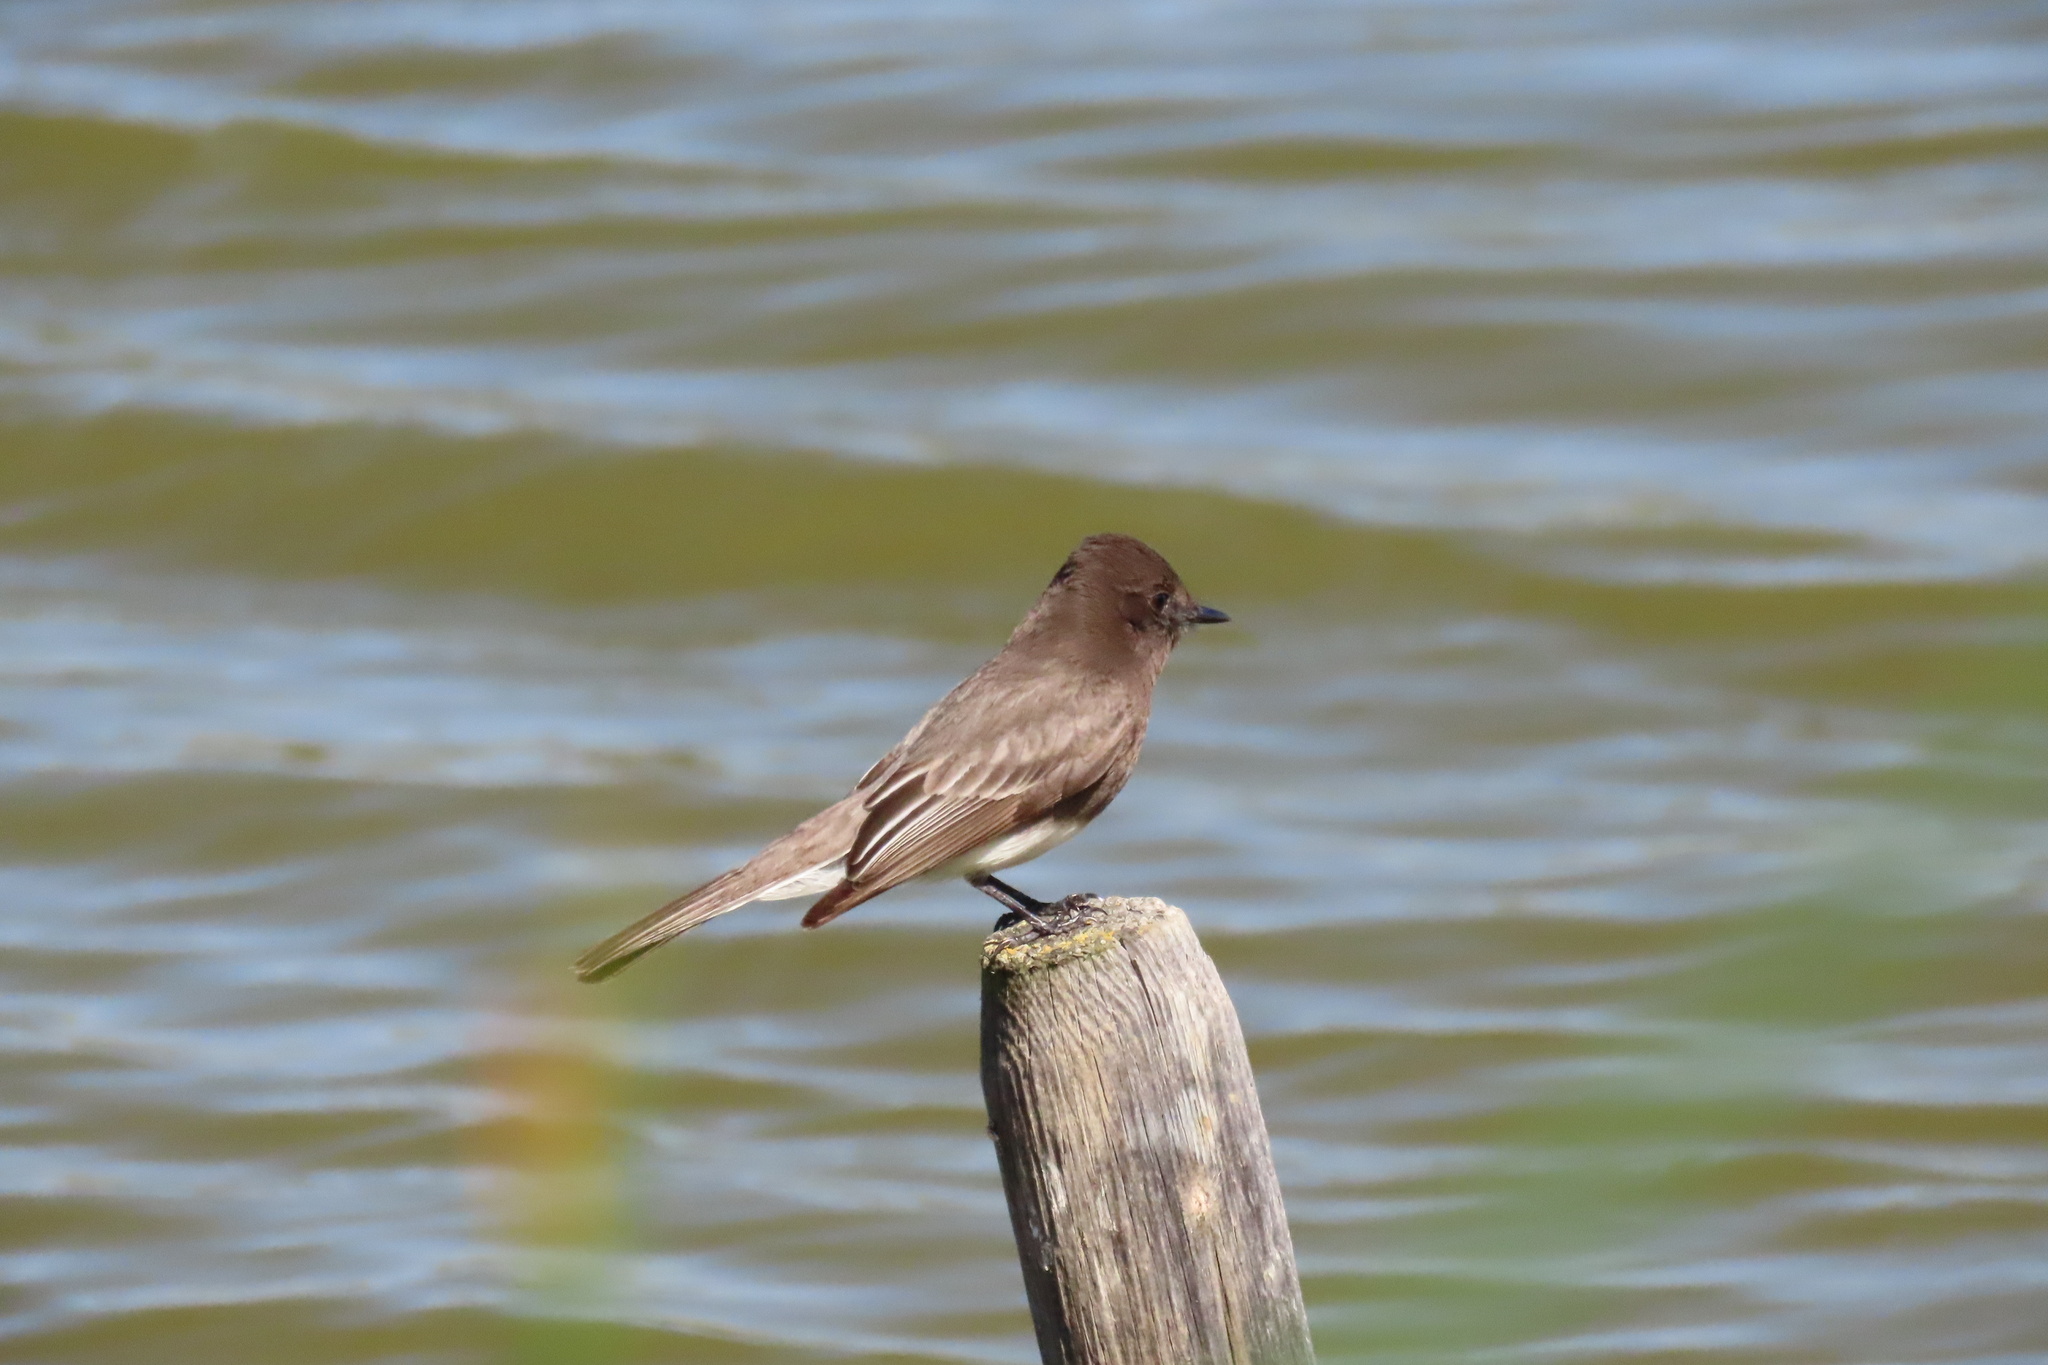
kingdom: Animalia
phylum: Chordata
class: Aves
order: Passeriformes
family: Tyrannidae
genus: Sayornis
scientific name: Sayornis nigricans
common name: Black phoebe
